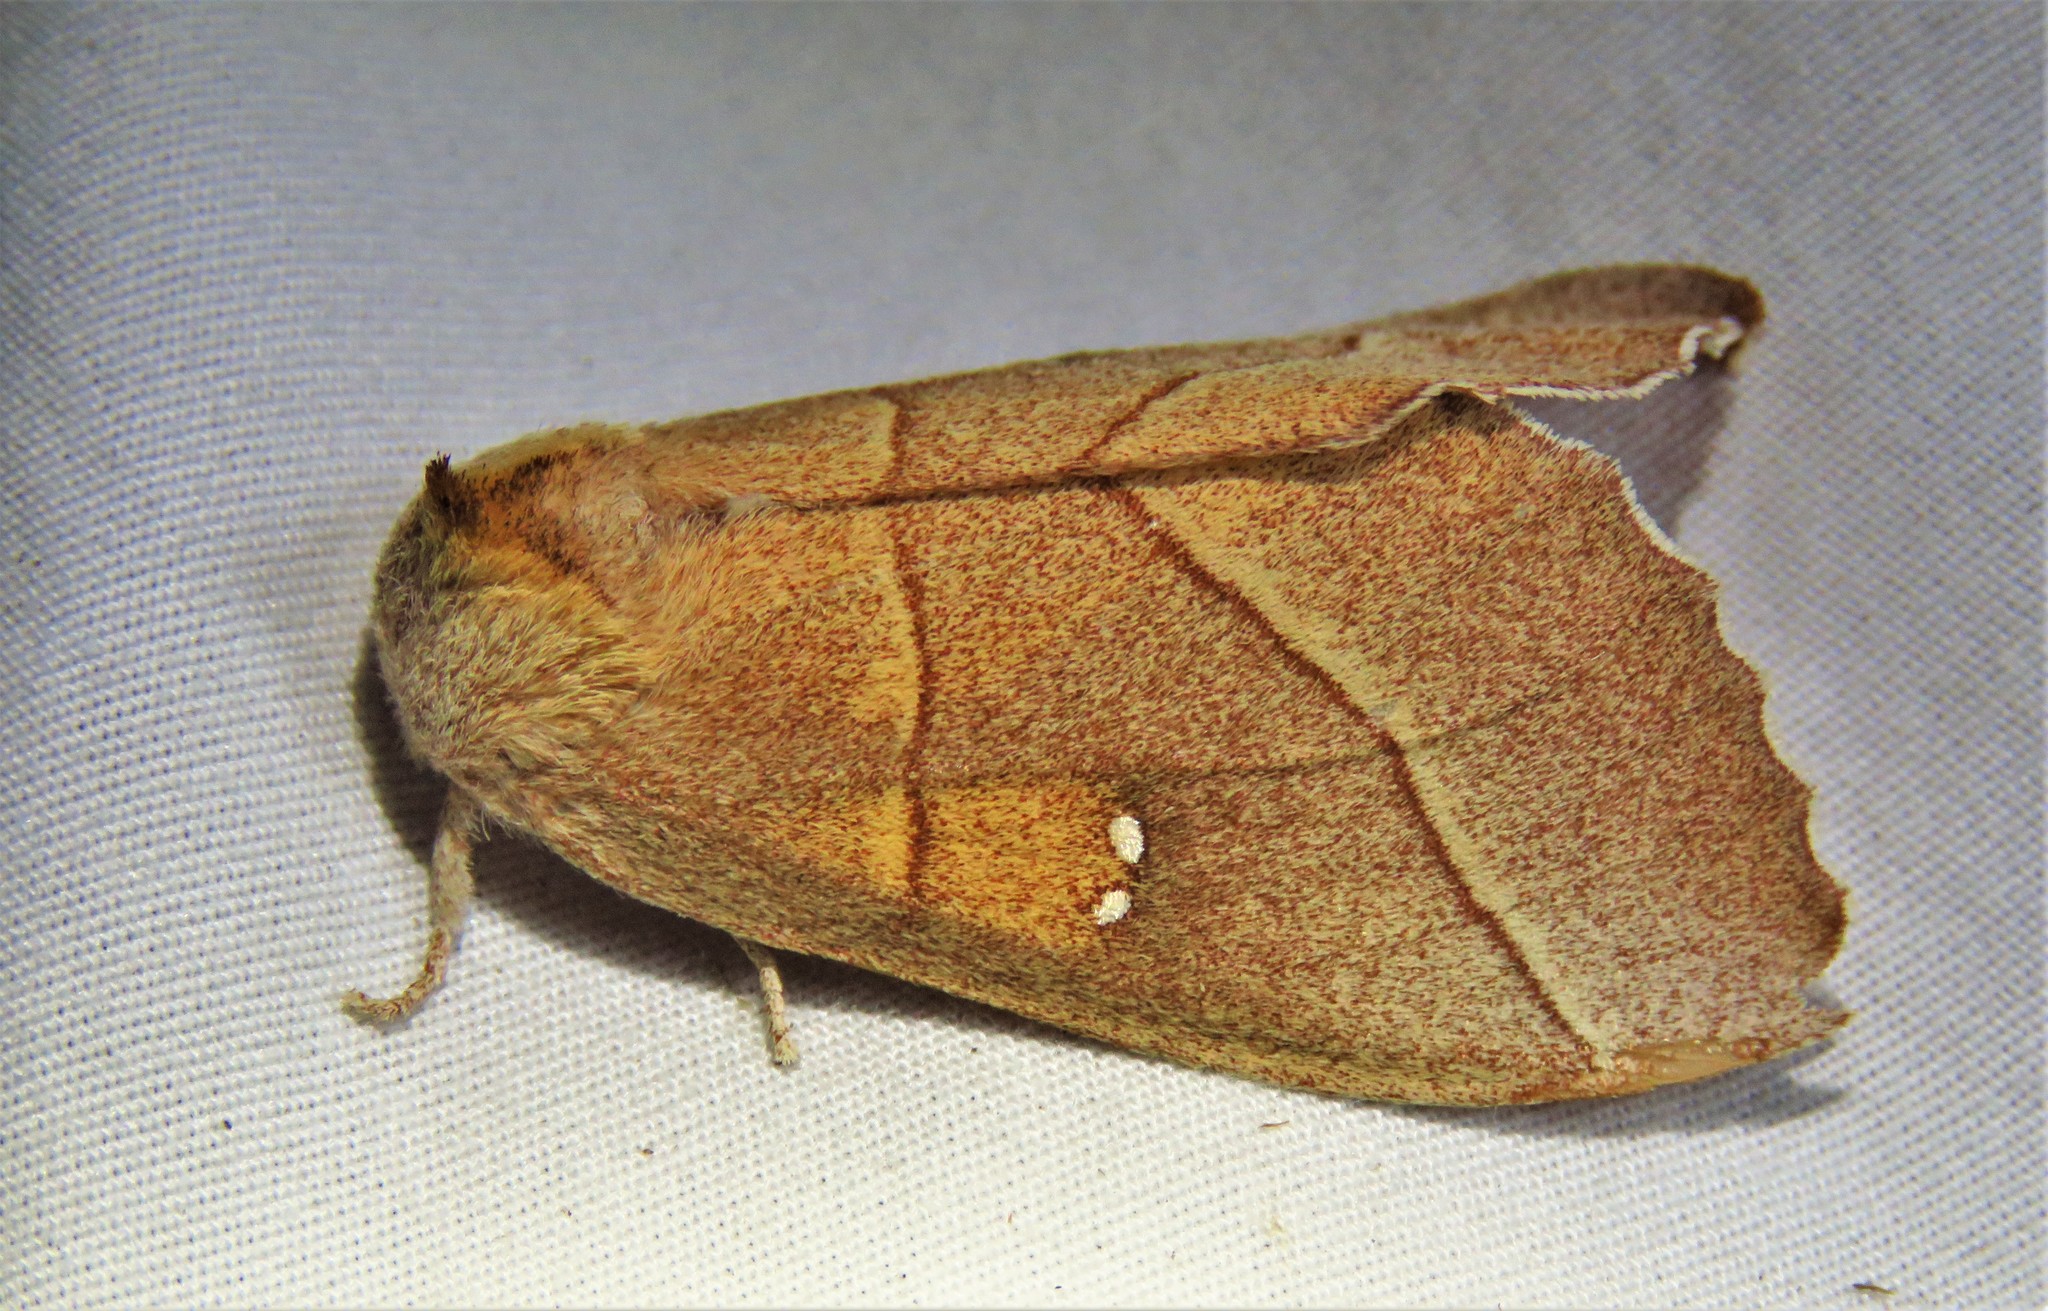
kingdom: Animalia
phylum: Arthropoda
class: Insecta
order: Lepidoptera
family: Notodontidae
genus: Nadata
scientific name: Nadata gibbosa
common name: White-dotted prominent
